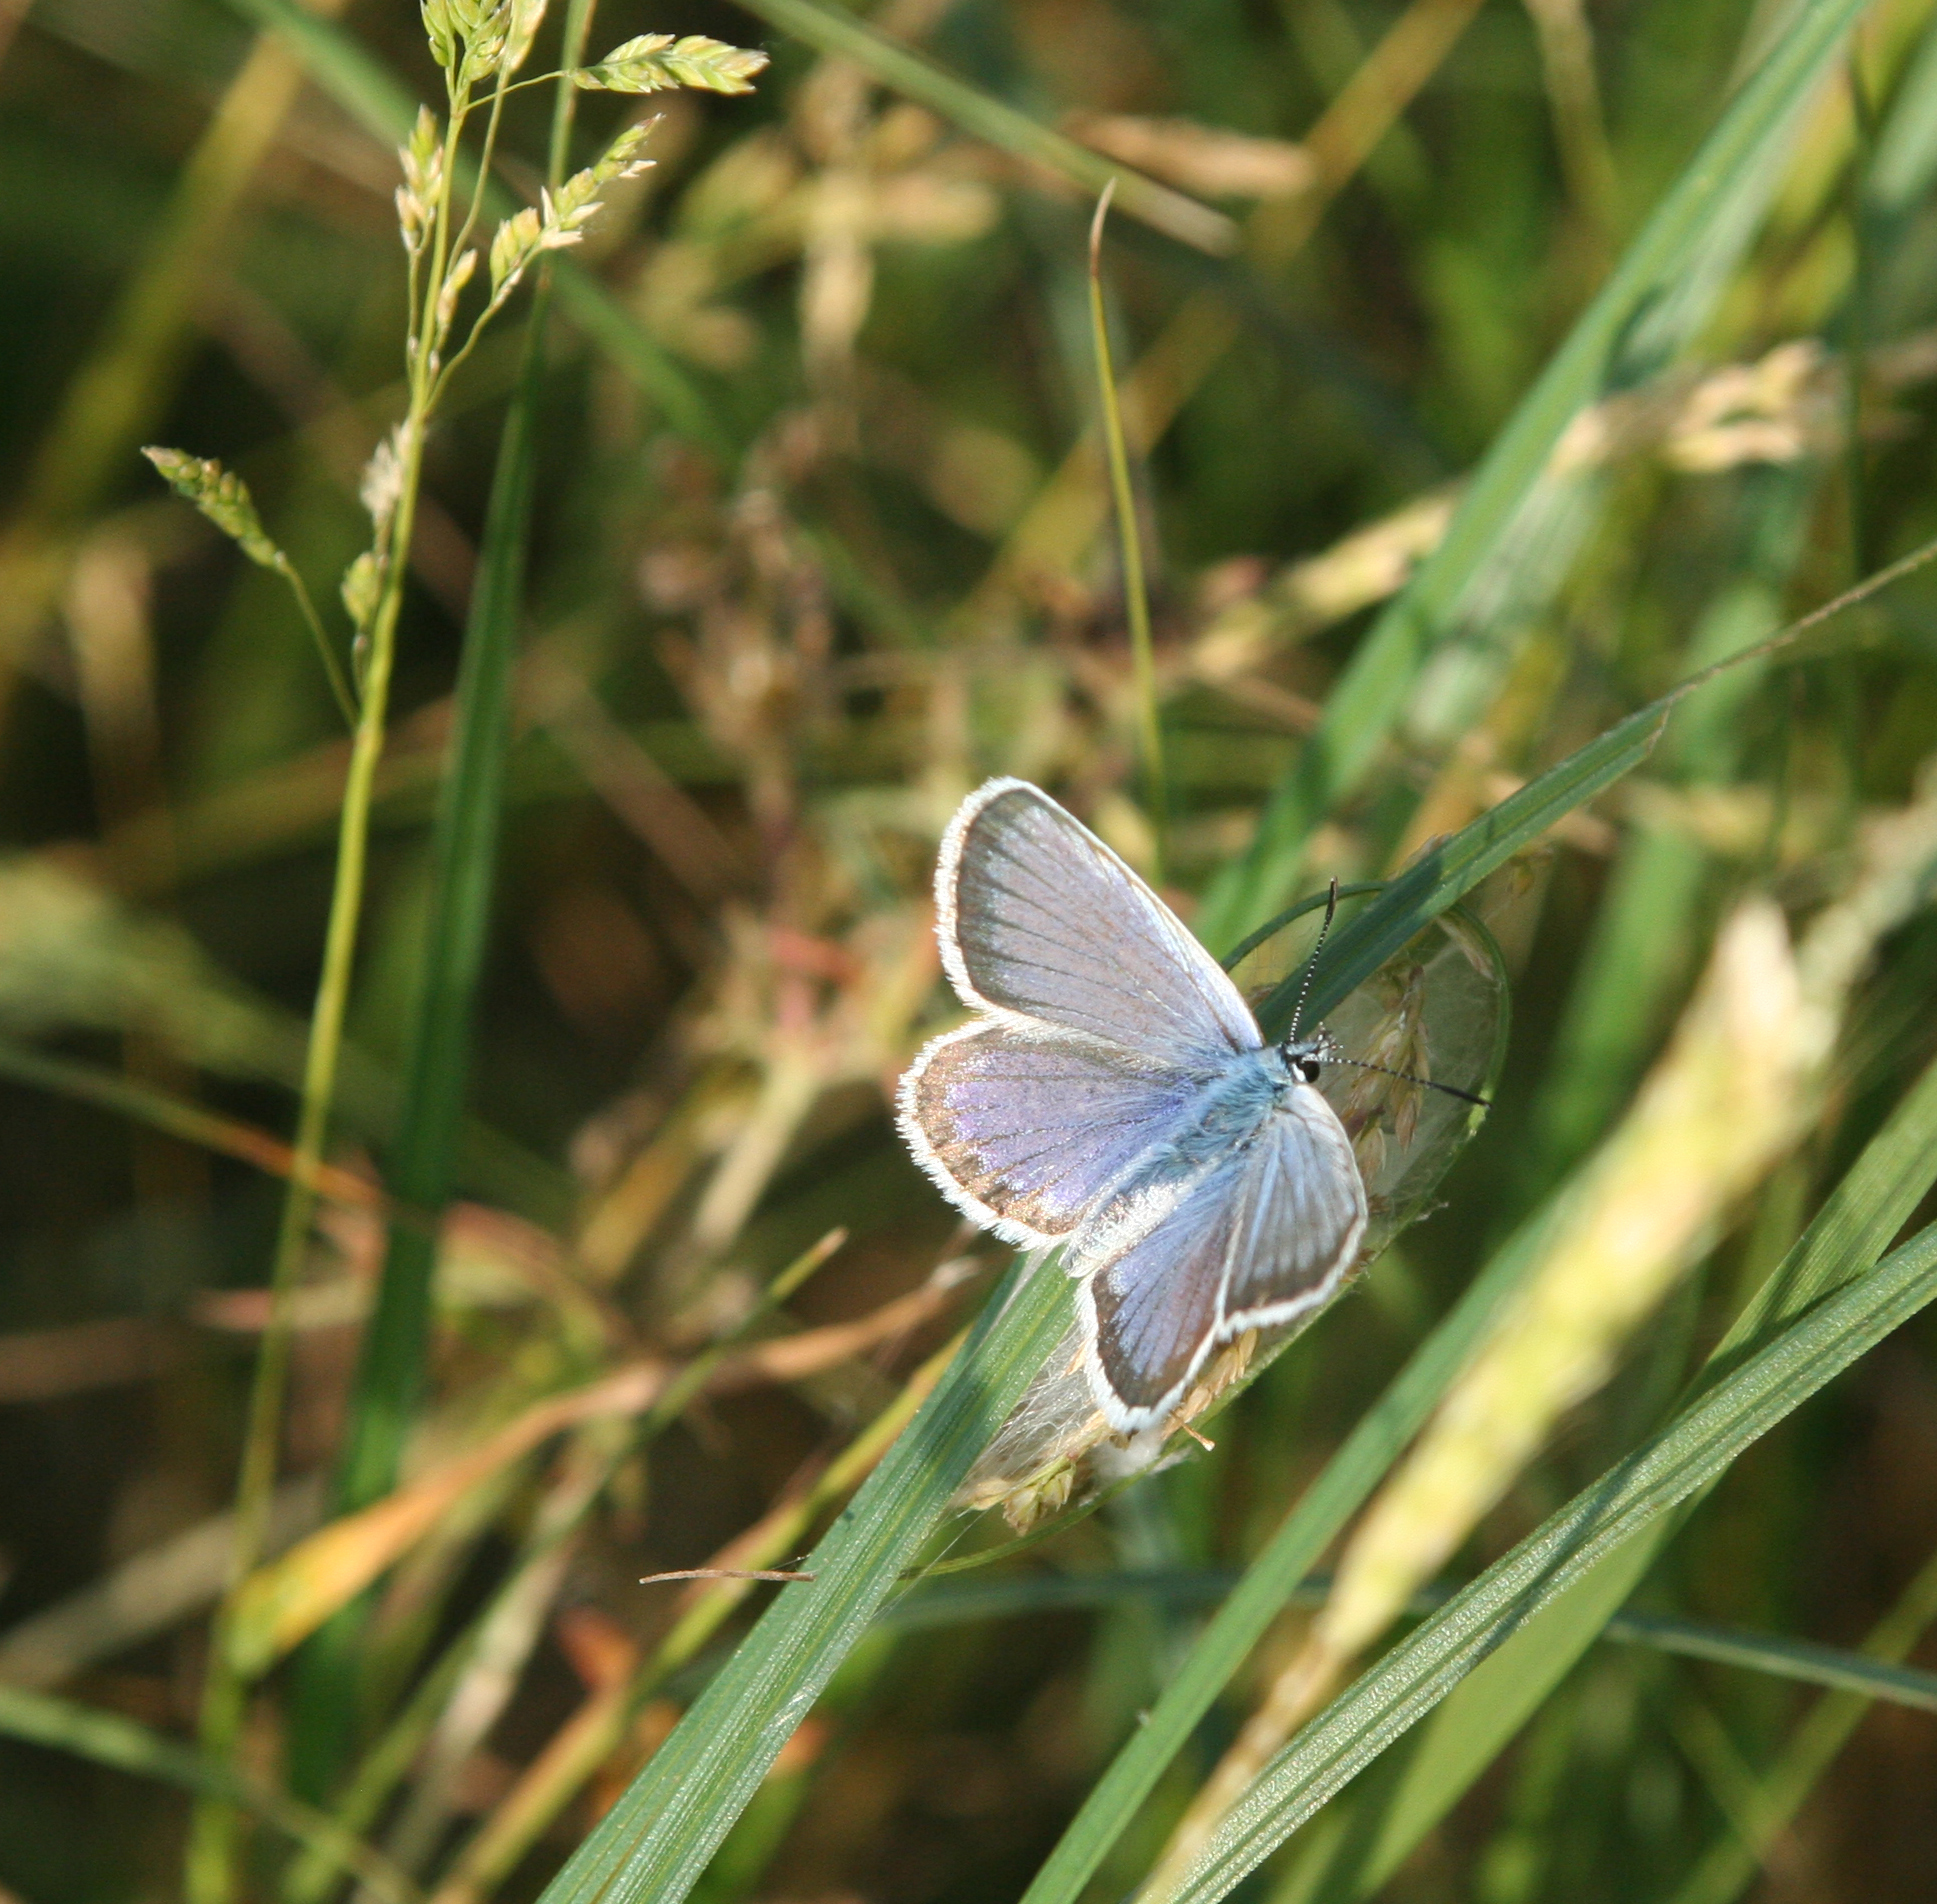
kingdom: Animalia
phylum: Arthropoda
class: Insecta
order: Lepidoptera
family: Lycaenidae
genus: Plebejus
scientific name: Plebejus argus
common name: Silver-studded blue
